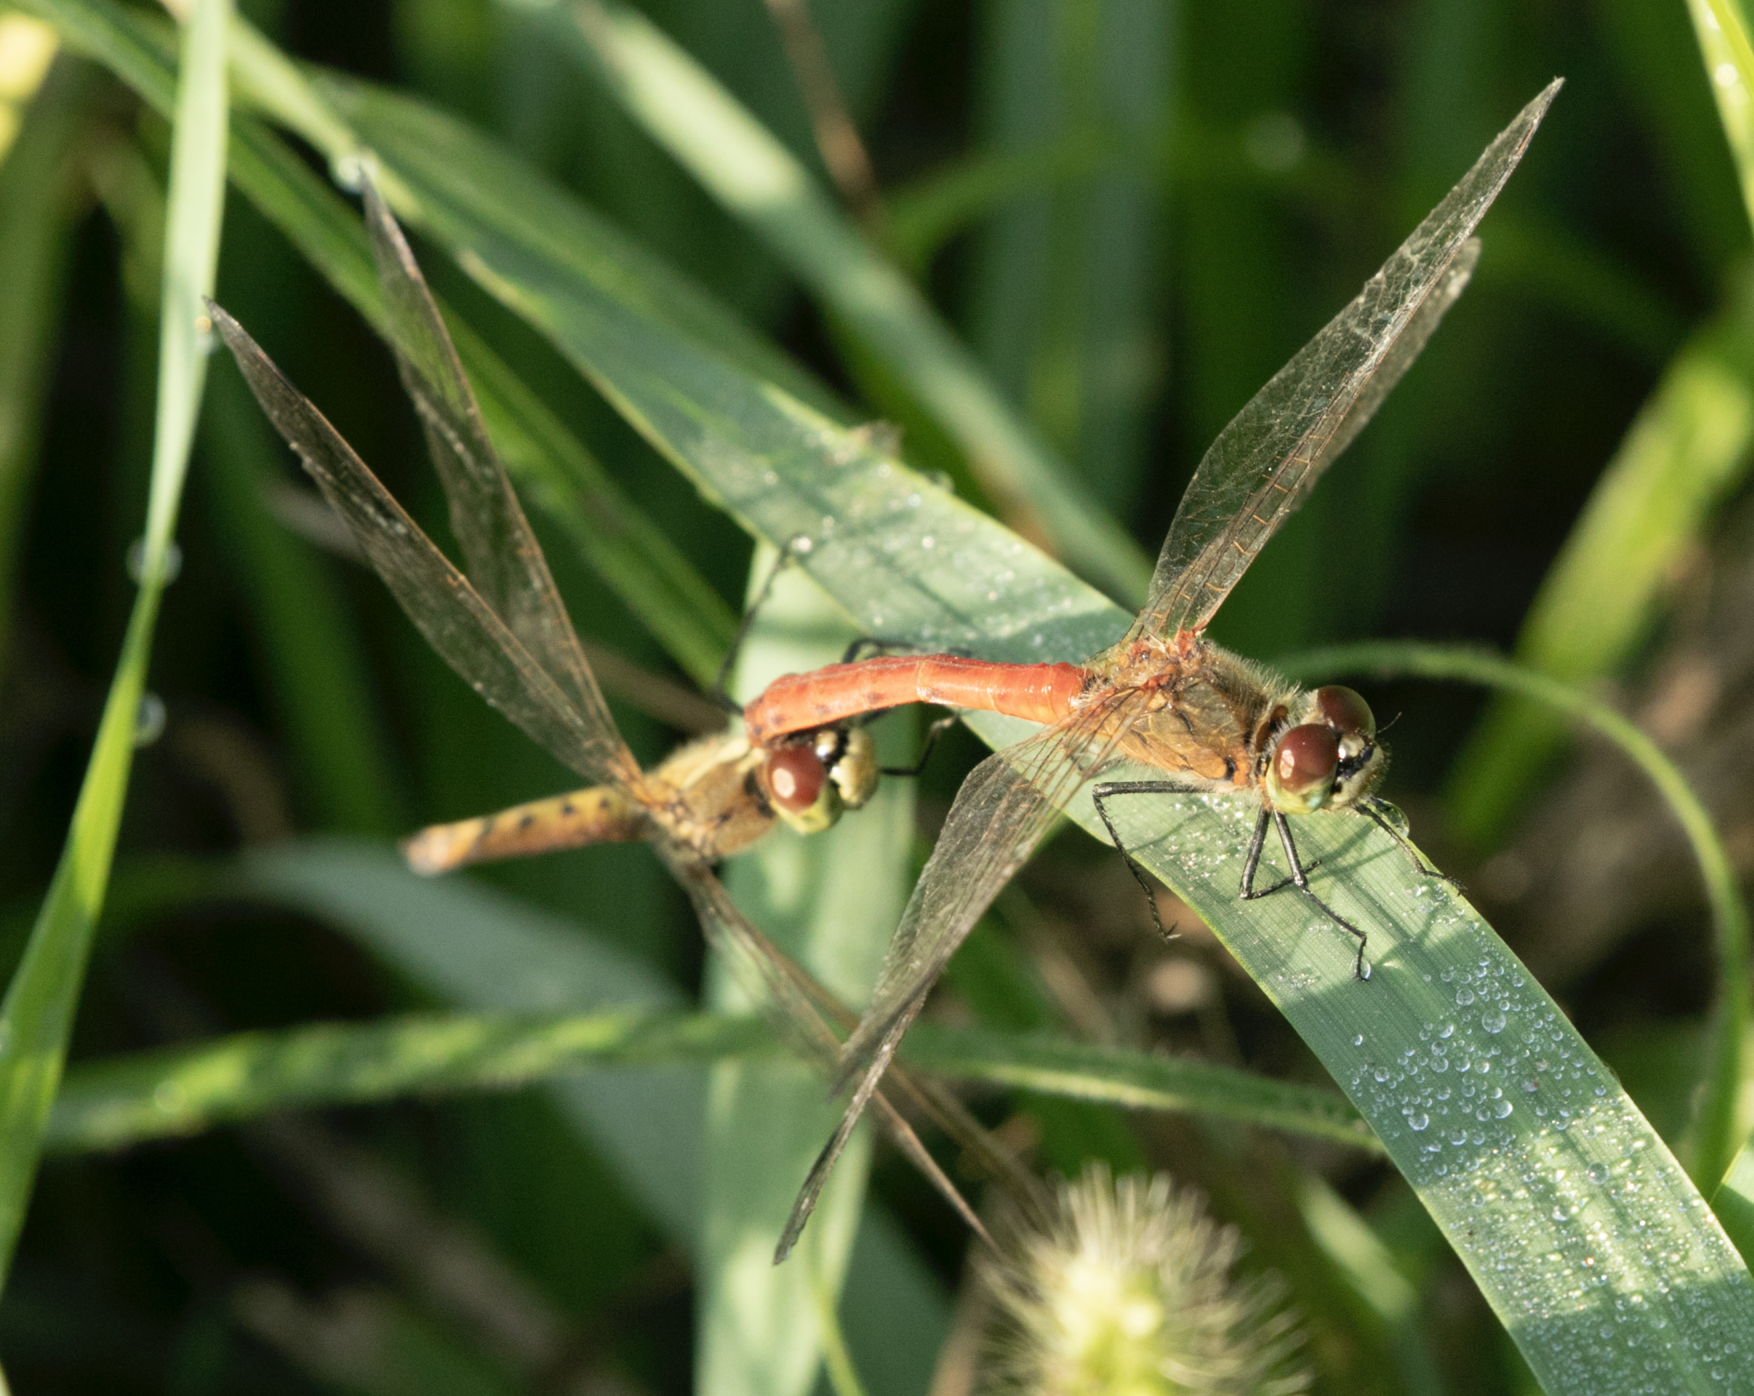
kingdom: Animalia
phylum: Arthropoda
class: Insecta
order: Odonata
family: Libellulidae
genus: Sympetrum
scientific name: Sympetrum depressiusculum
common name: Spotted darter
